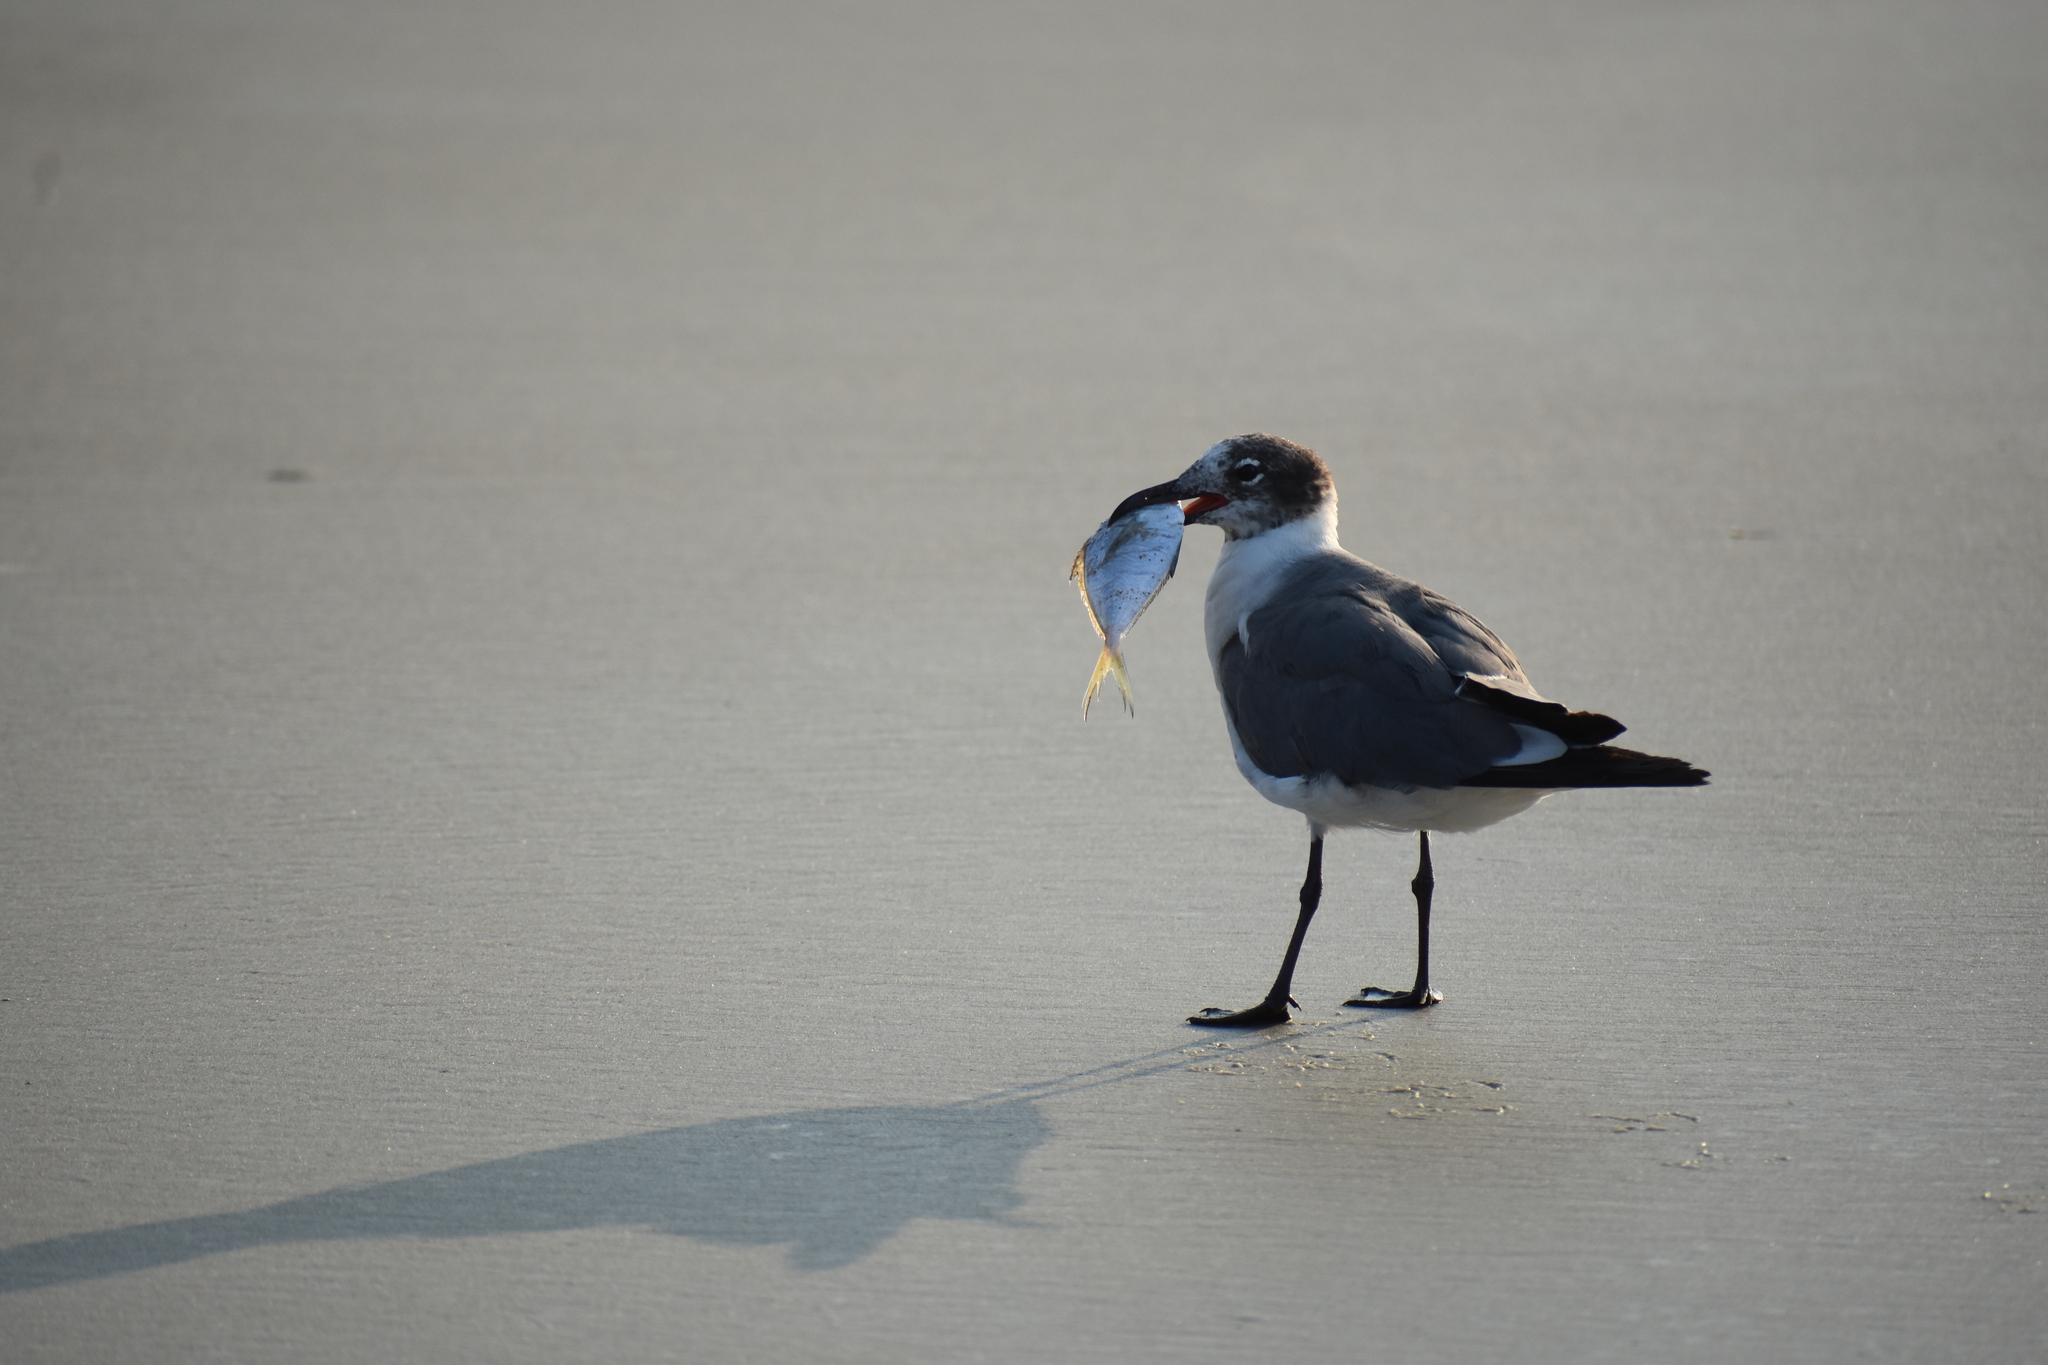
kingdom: Animalia
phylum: Chordata
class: Aves
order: Charadriiformes
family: Laridae
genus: Leucophaeus
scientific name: Leucophaeus atricilla
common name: Laughing gull
